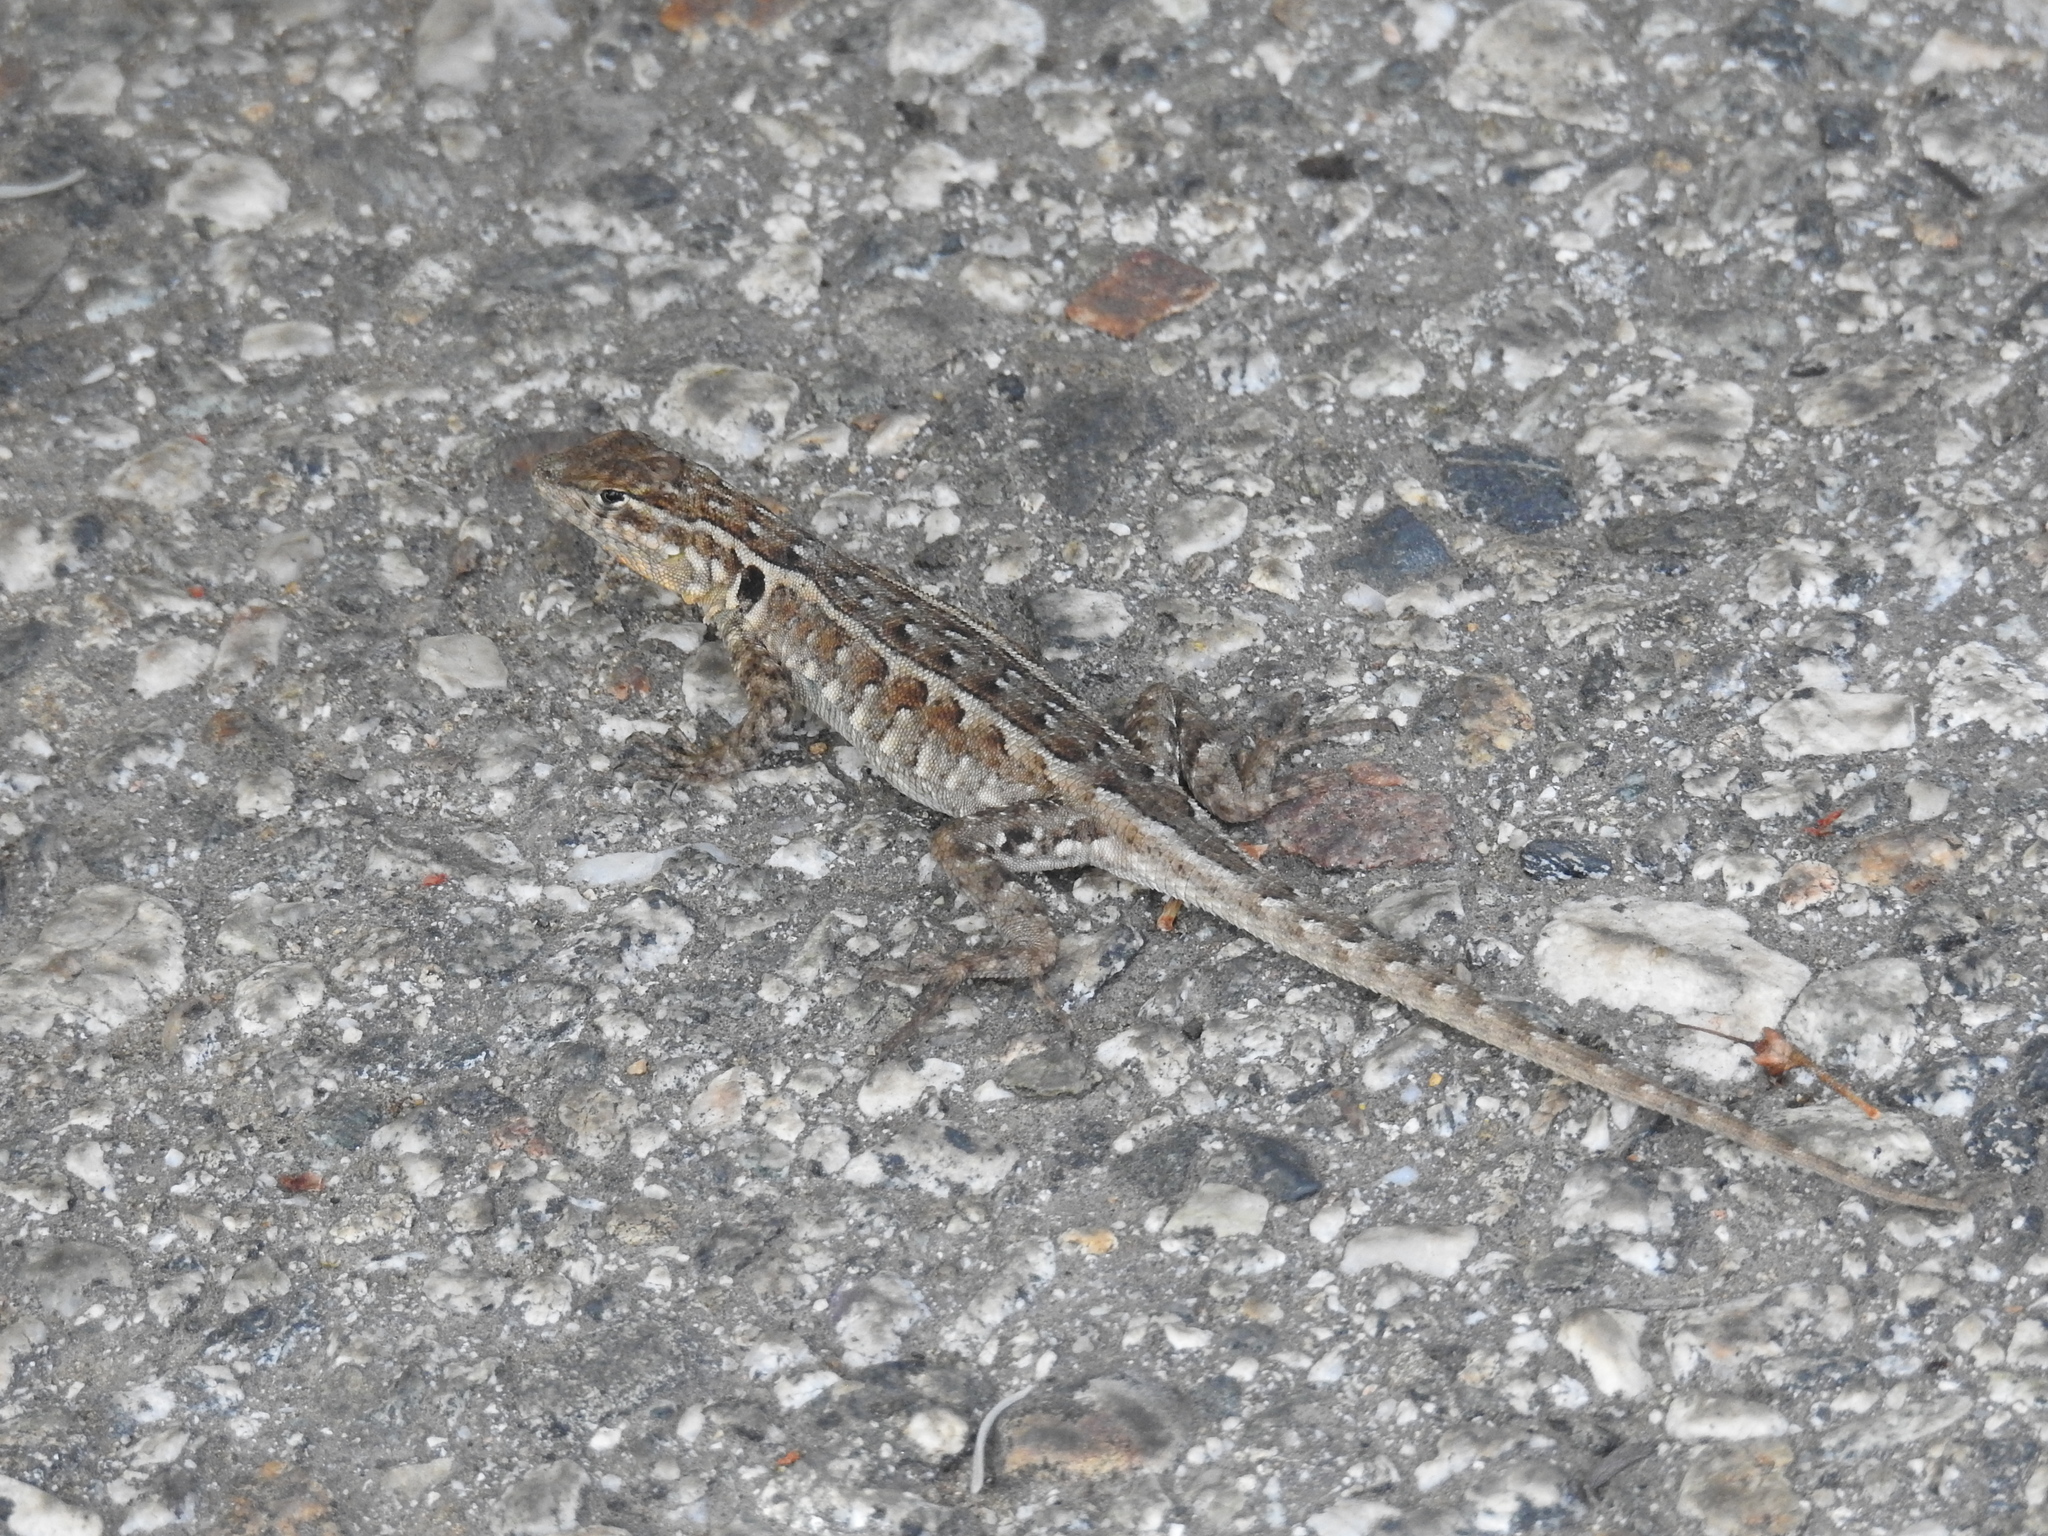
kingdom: Animalia
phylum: Chordata
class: Squamata
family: Phrynosomatidae
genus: Uta
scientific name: Uta stansburiana
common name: Side-blotched lizard
